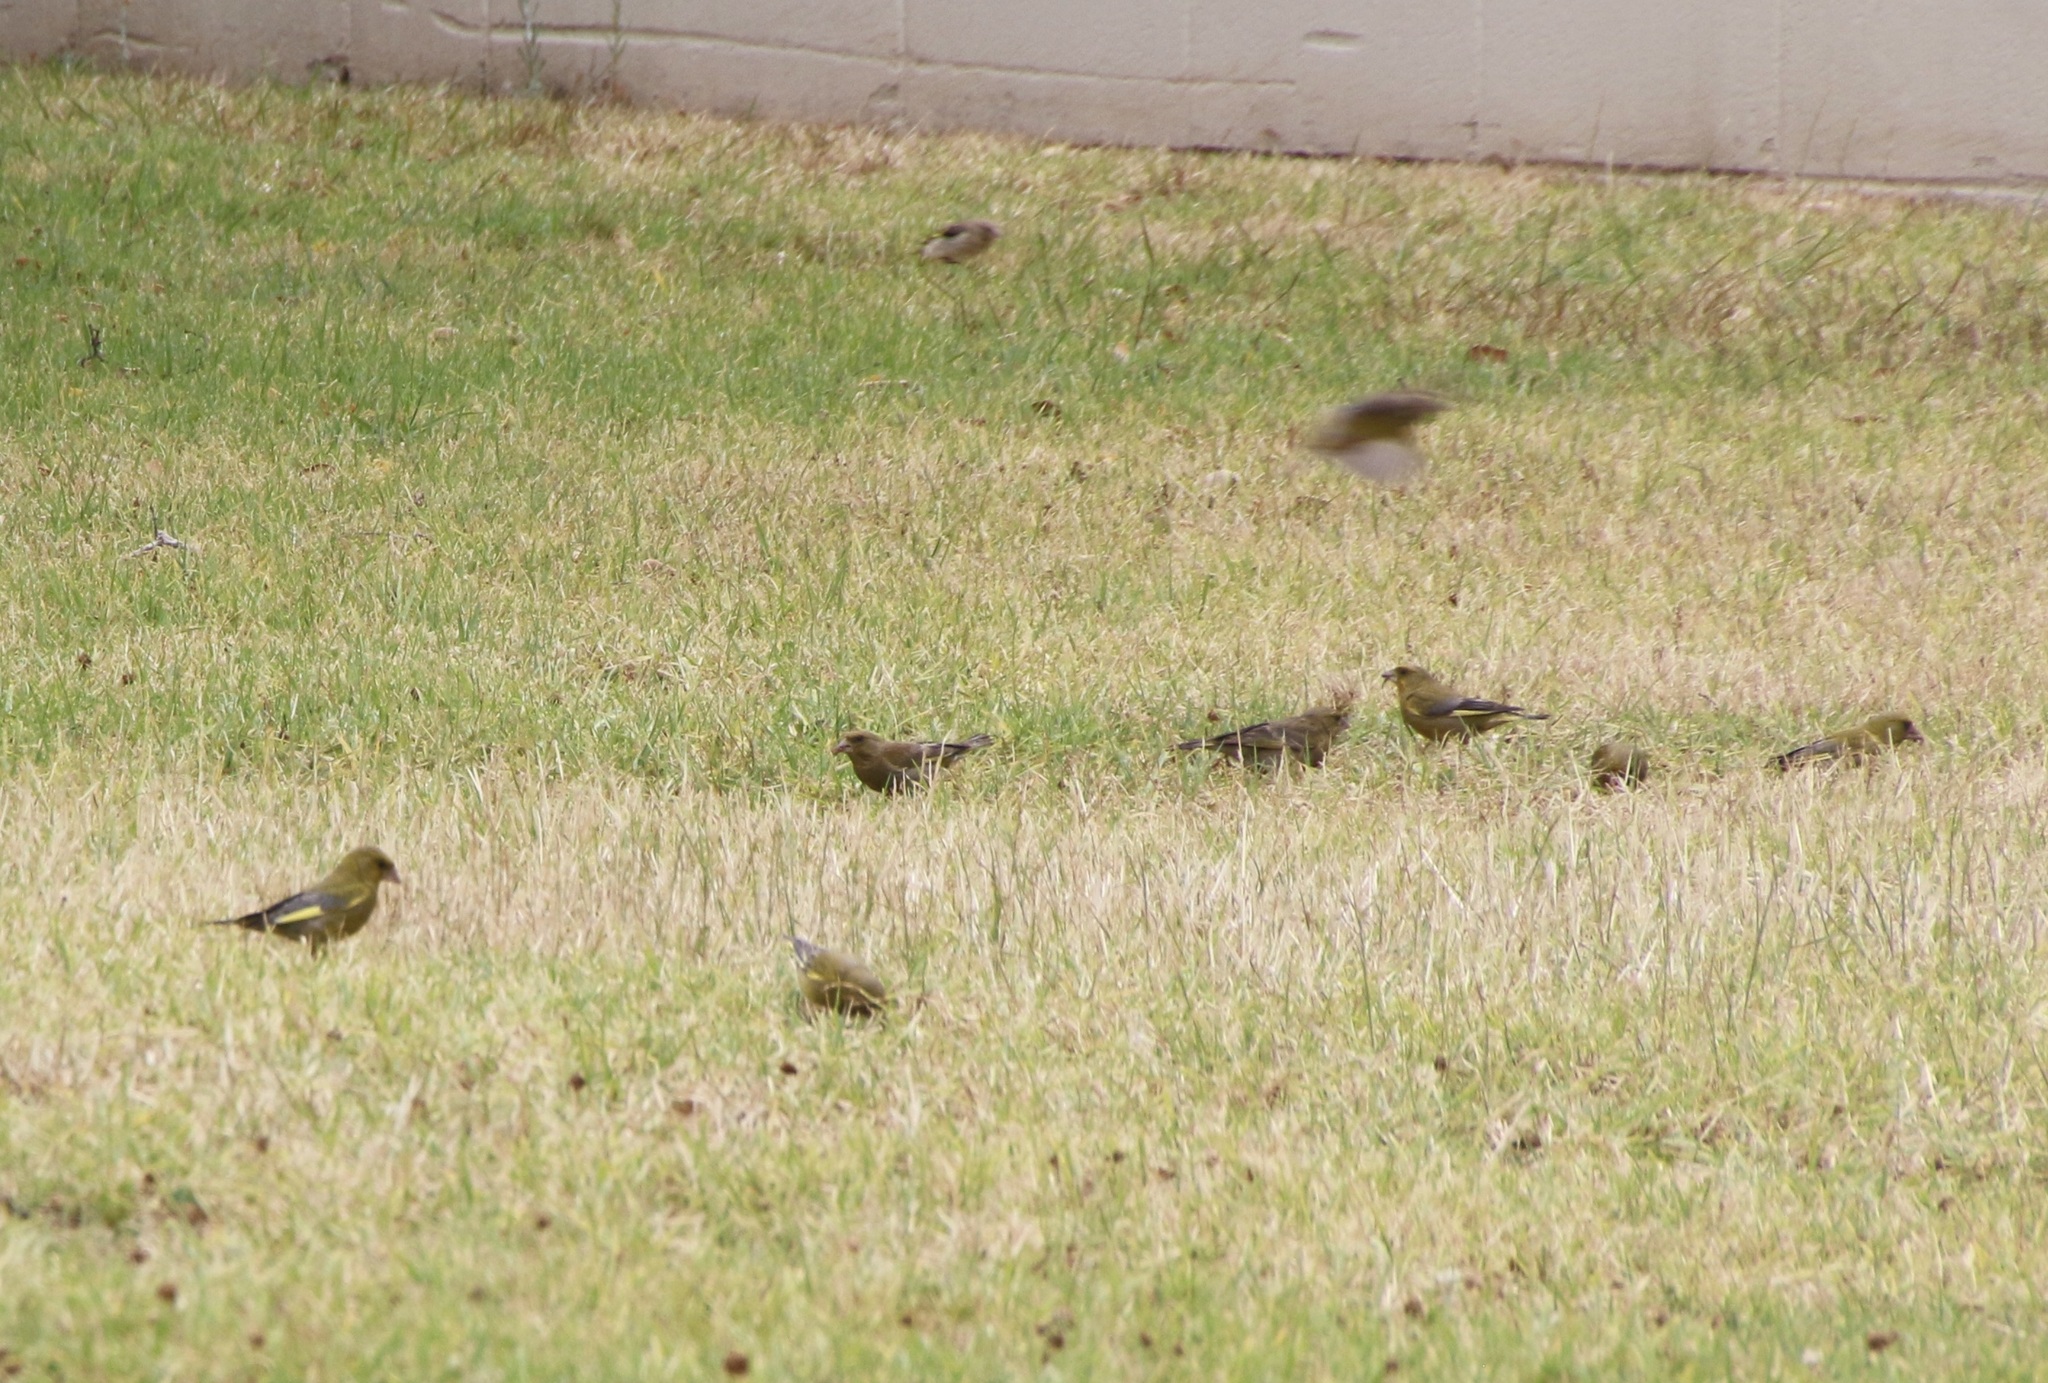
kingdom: Plantae
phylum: Tracheophyta
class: Liliopsida
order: Poales
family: Poaceae
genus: Chloris
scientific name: Chloris chloris
